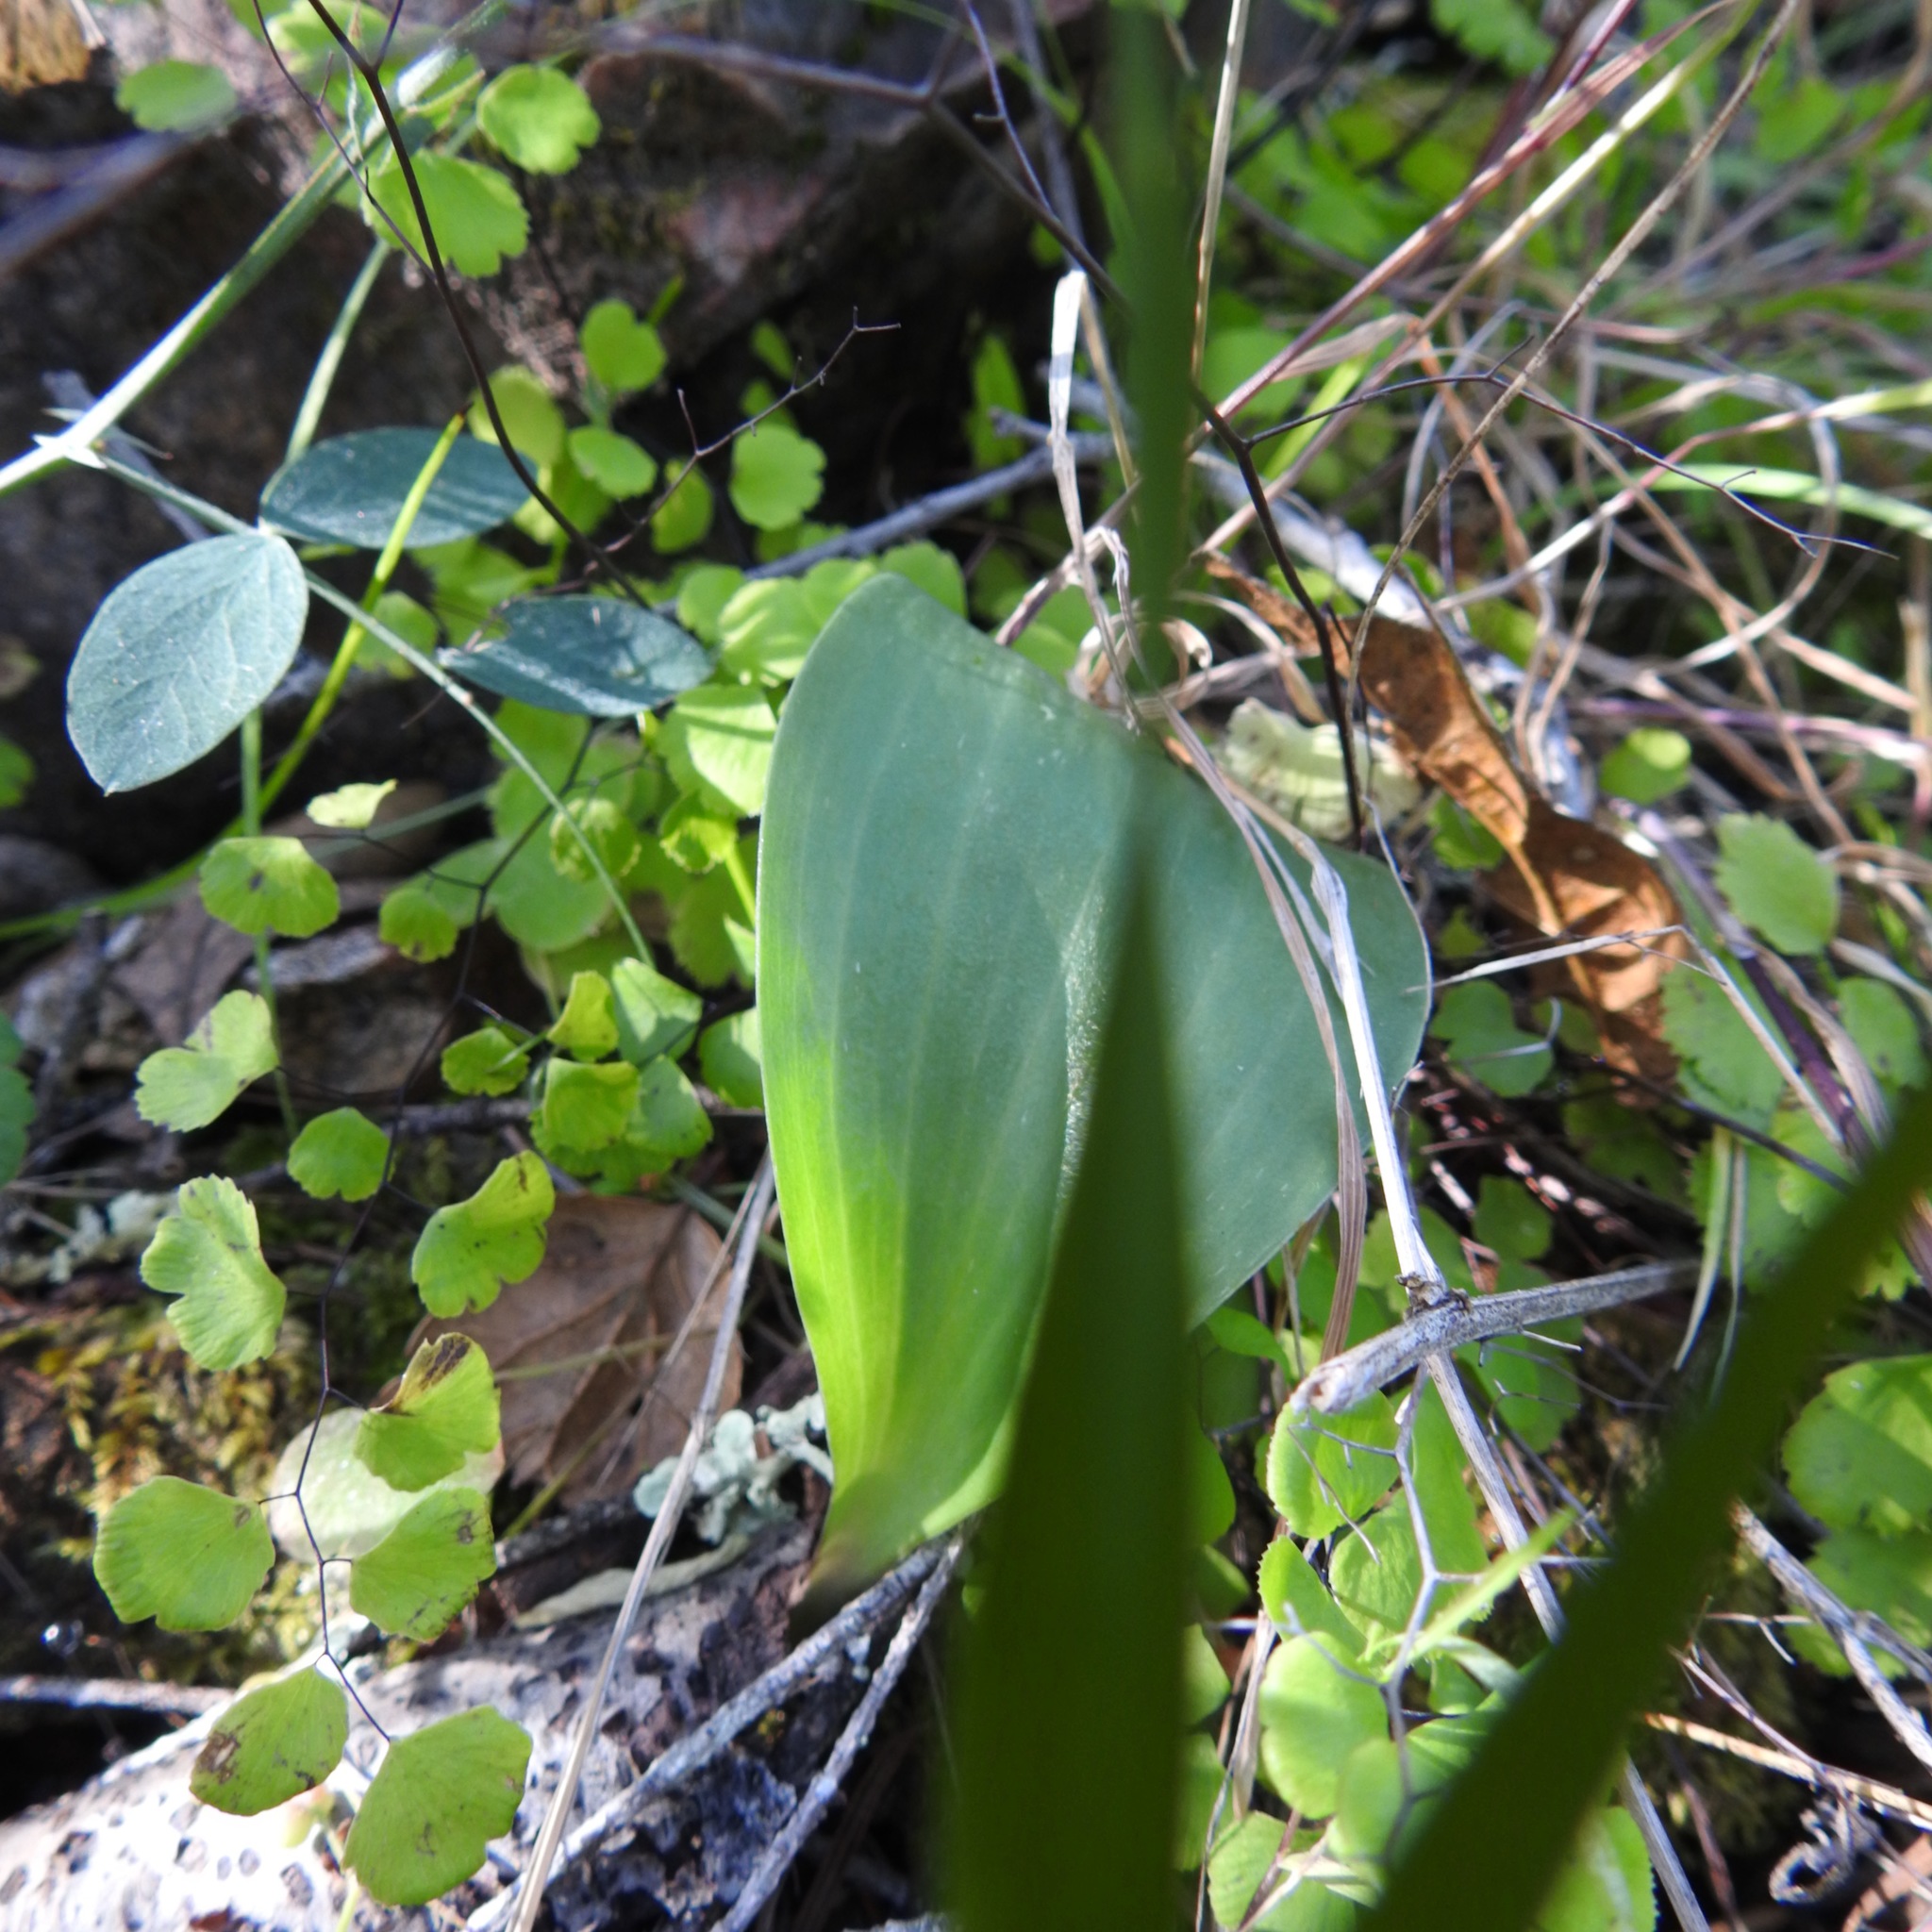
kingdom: Plantae
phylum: Tracheophyta
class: Liliopsida
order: Liliales
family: Liliaceae
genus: Fritillaria
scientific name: Fritillaria affinis
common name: Ojai fritillary
